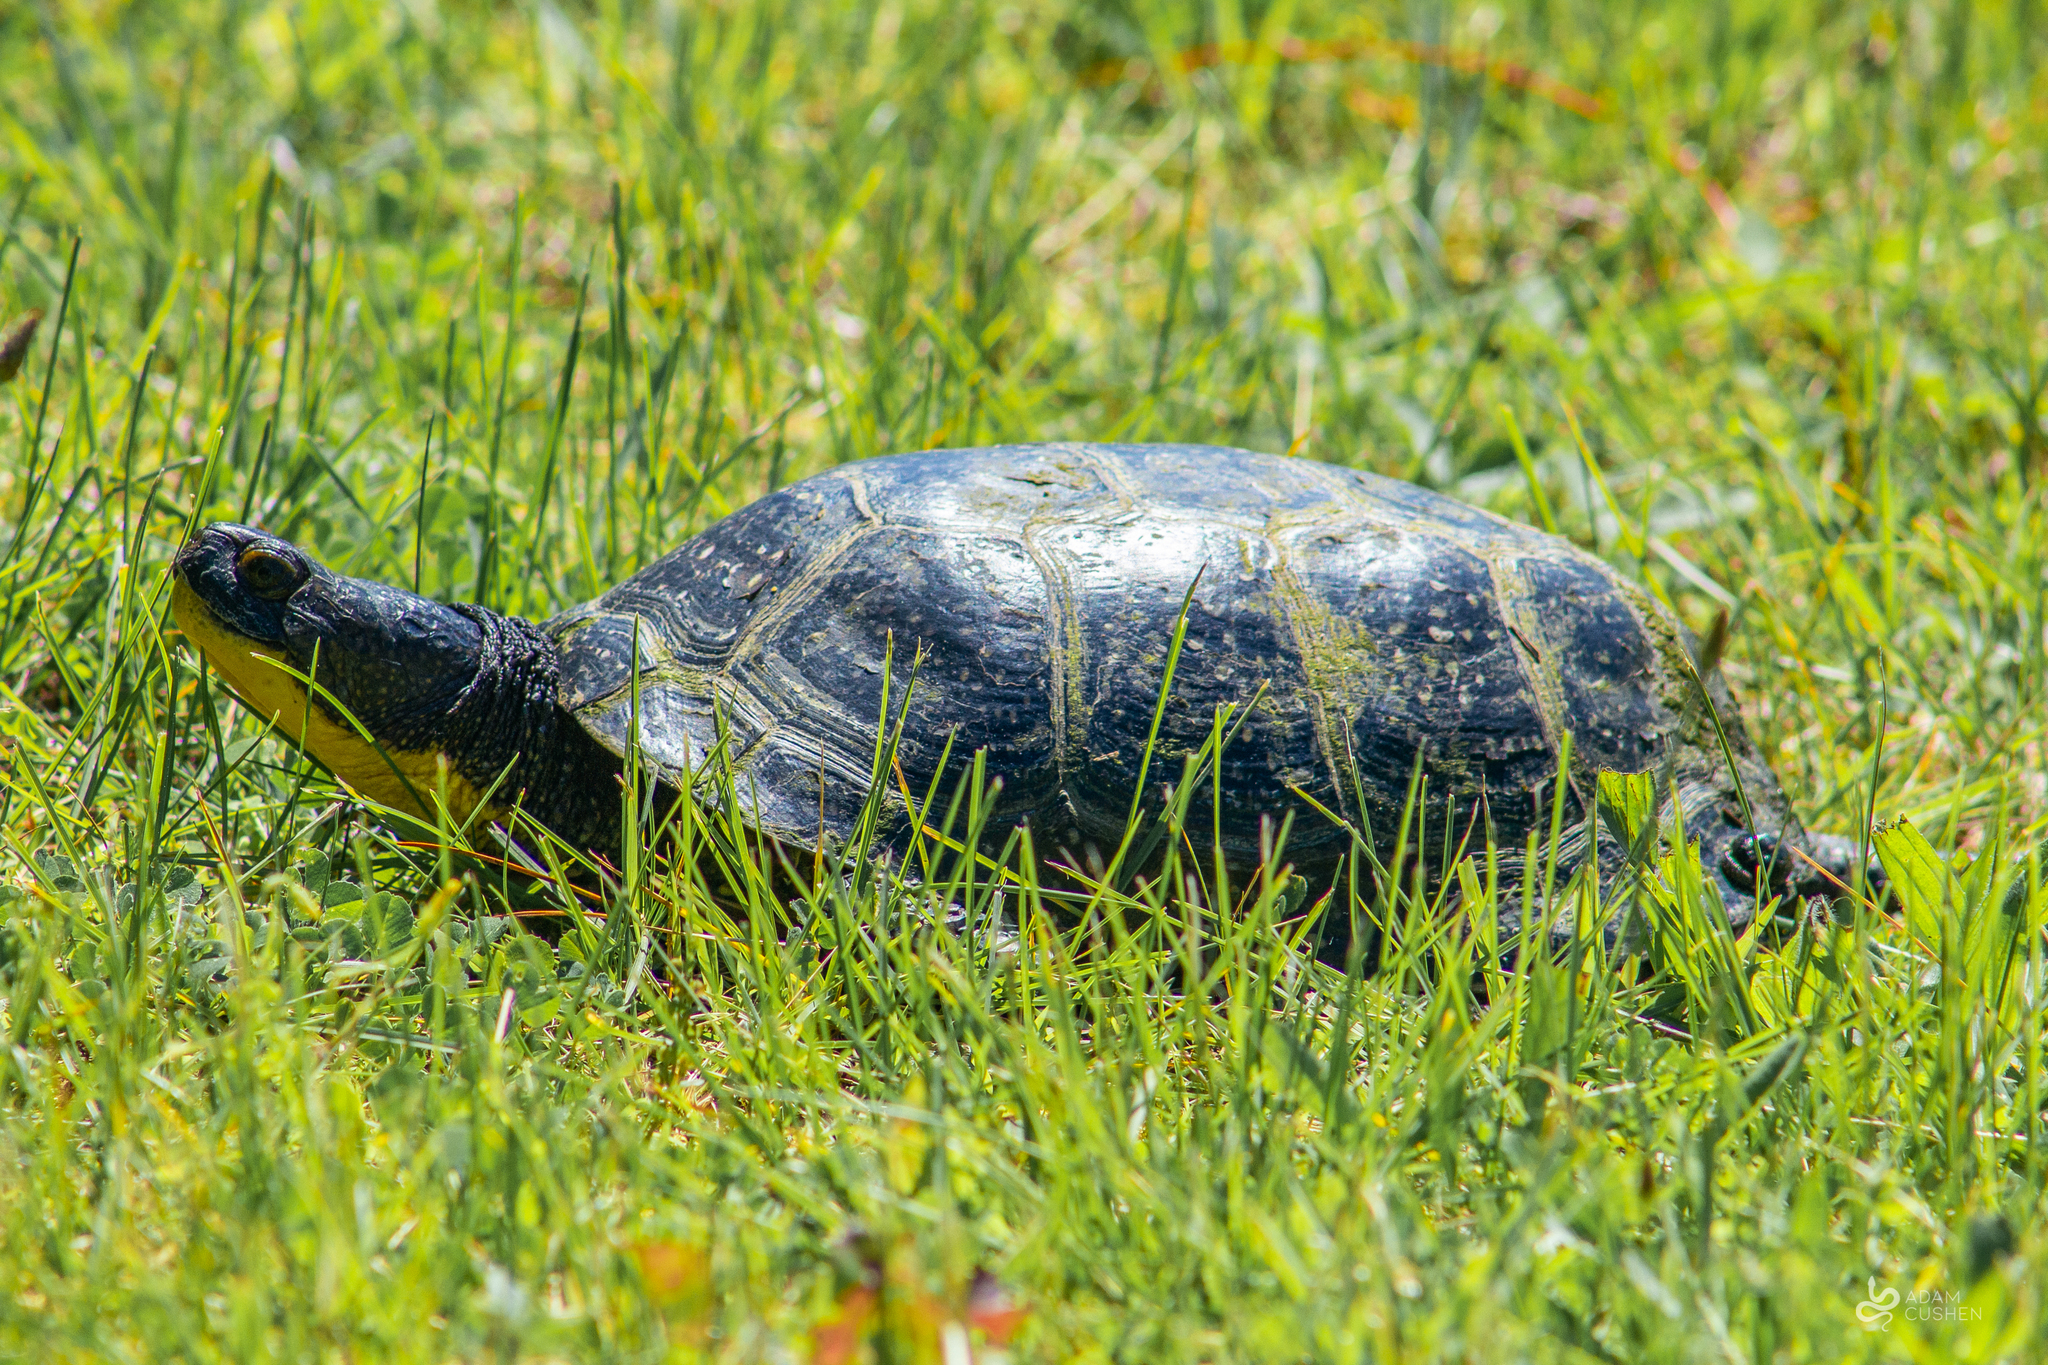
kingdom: Animalia
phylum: Chordata
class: Testudines
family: Emydidae
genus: Emys
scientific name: Emys blandingii
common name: Blanding's turtle
